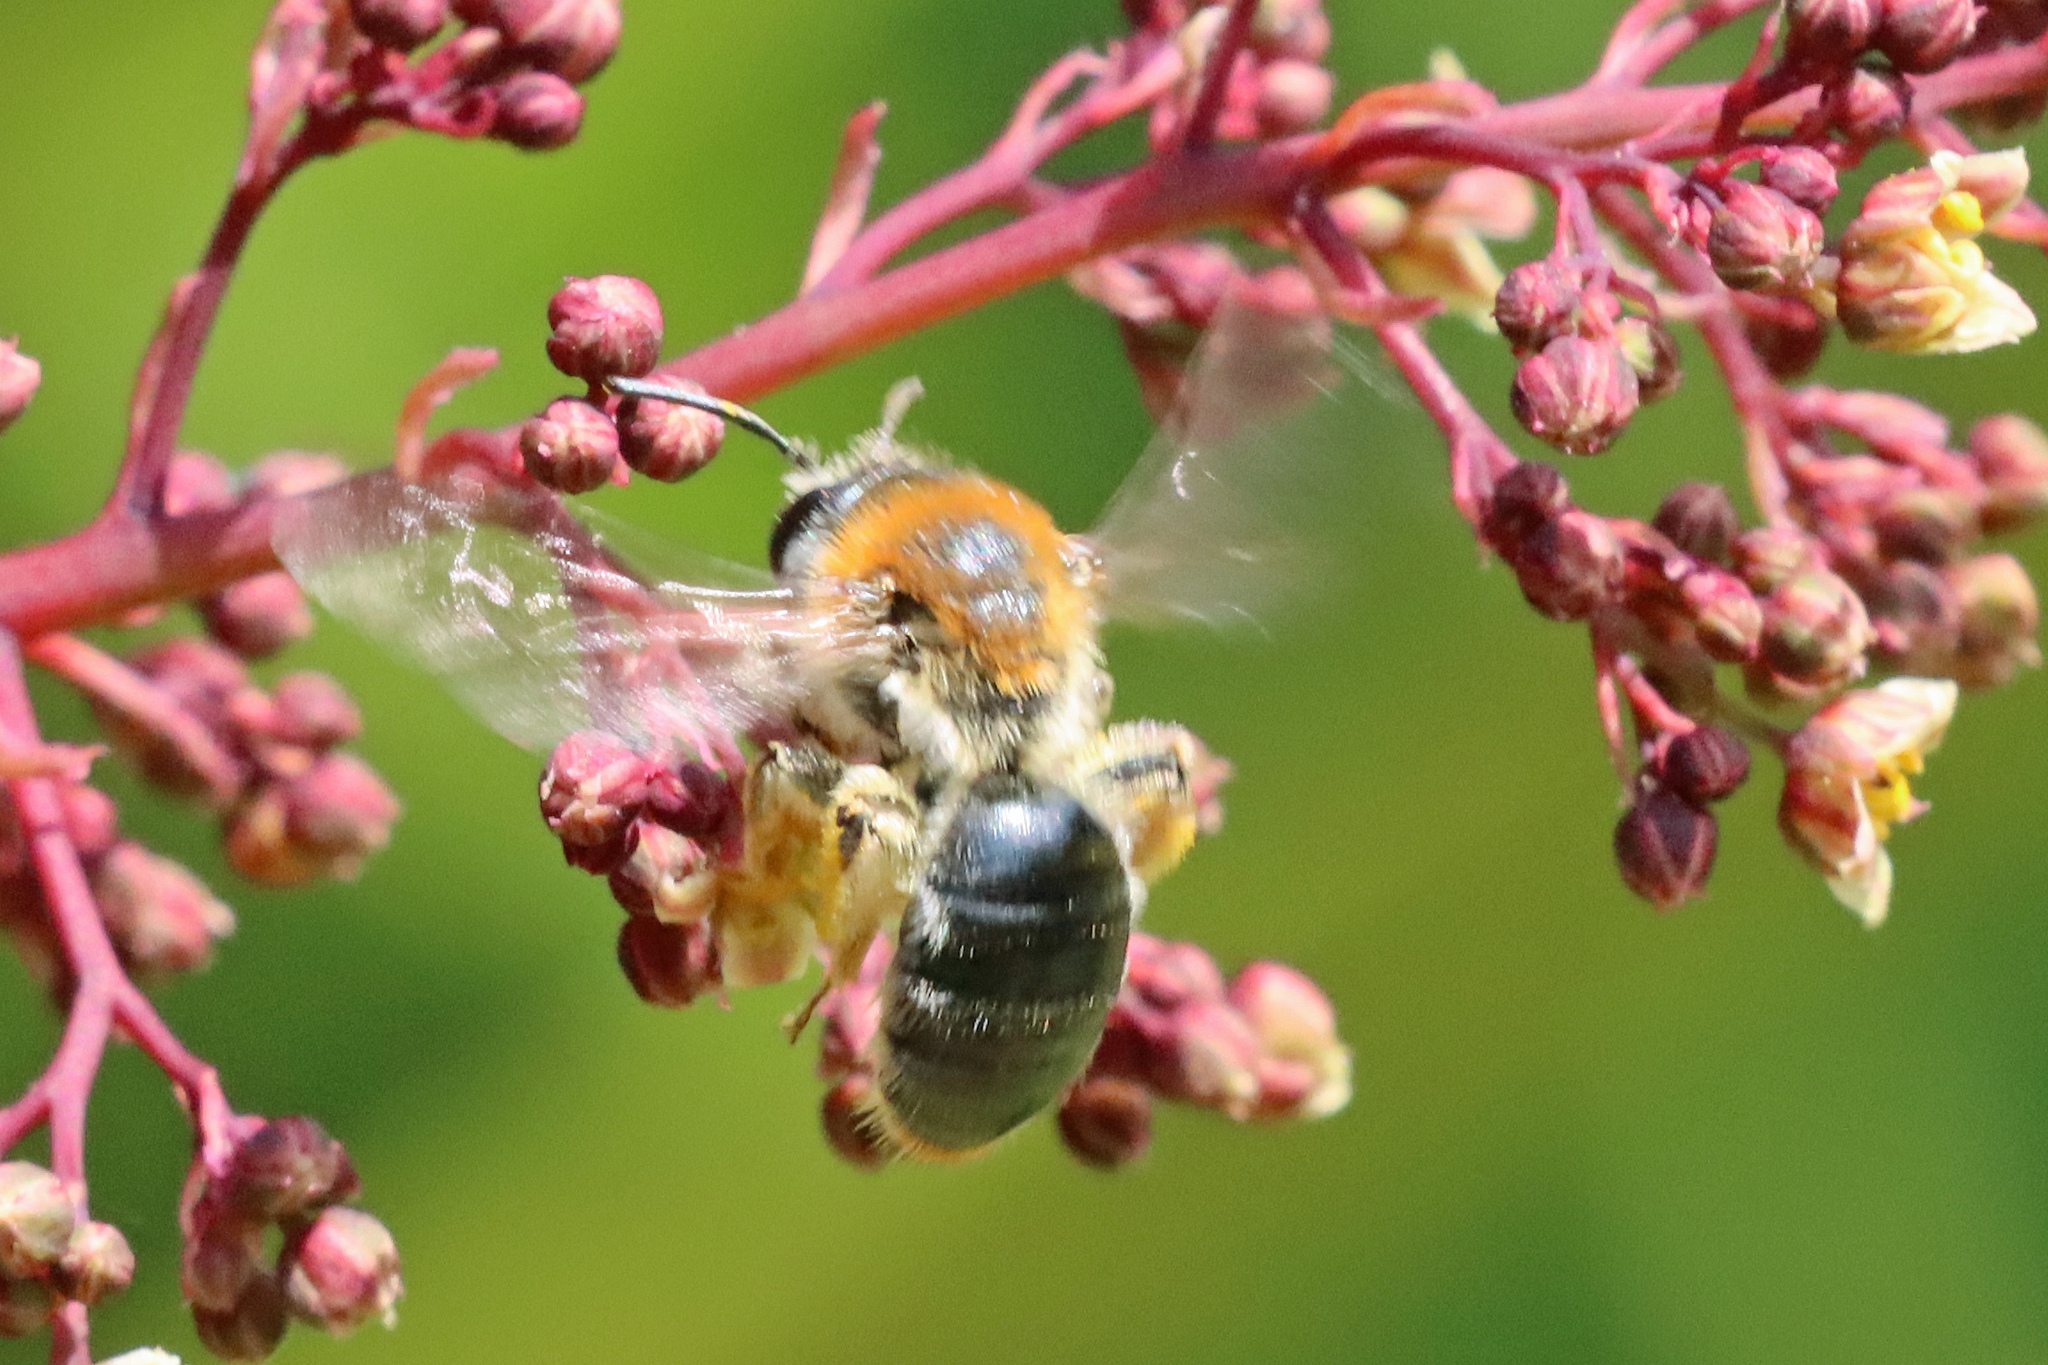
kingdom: Animalia
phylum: Arthropoda
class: Insecta
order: Hymenoptera
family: Andrenidae
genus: Andrena
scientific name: Andrena haemorrhoa
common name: Early mining bee
